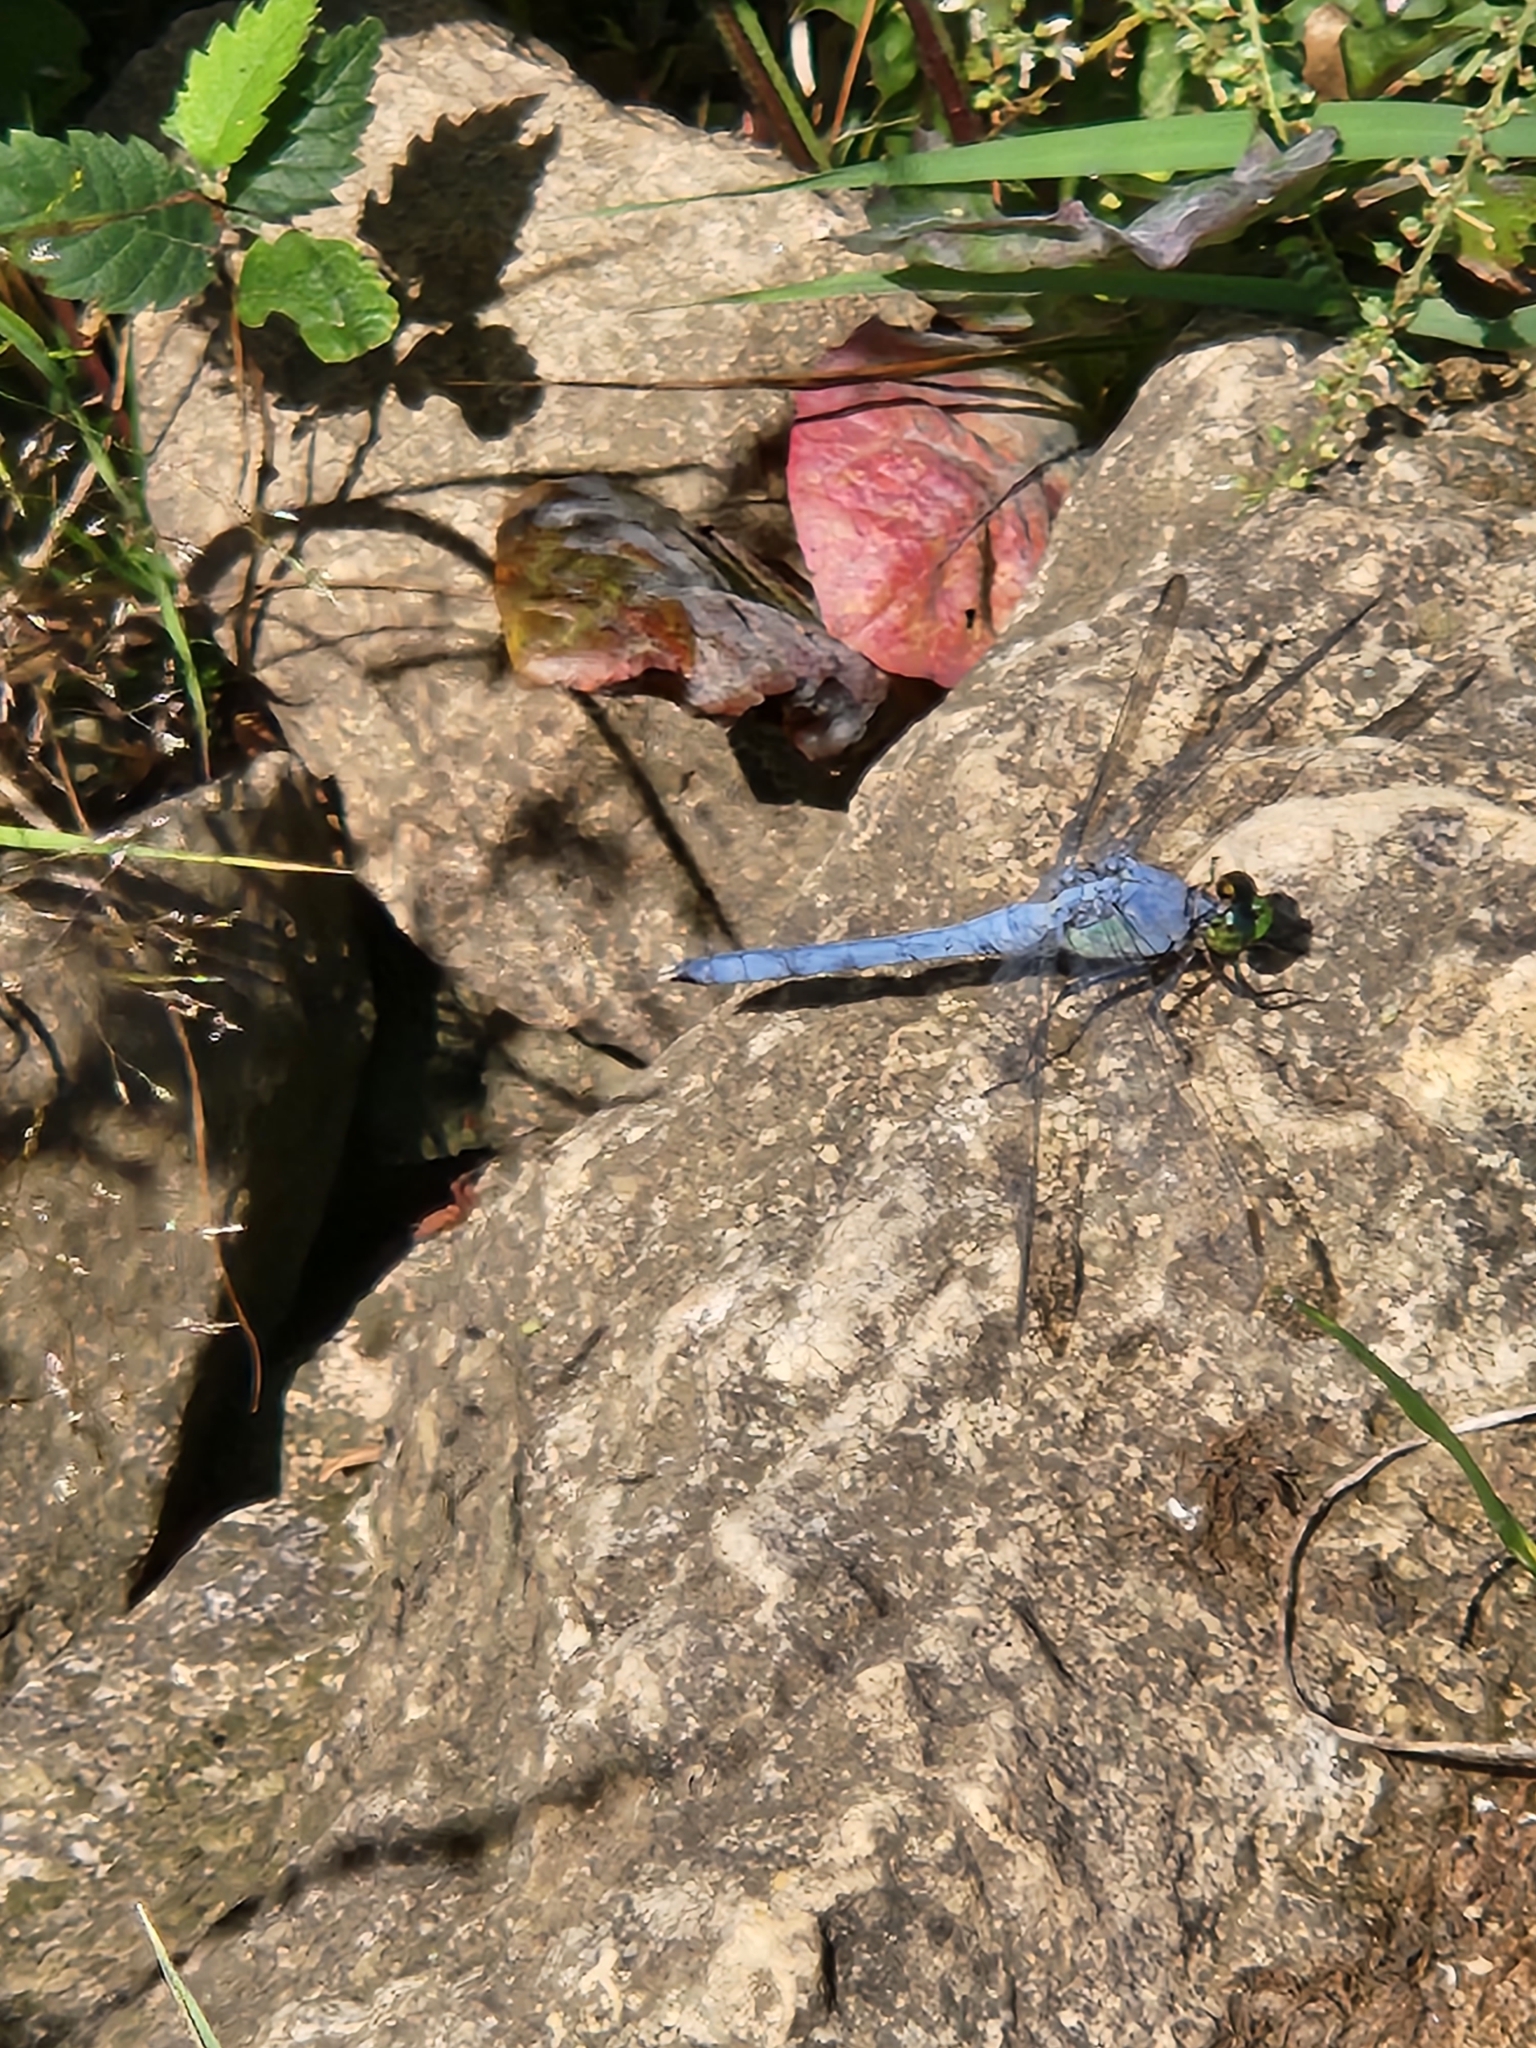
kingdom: Animalia
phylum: Arthropoda
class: Insecta
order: Odonata
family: Libellulidae
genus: Erythemis
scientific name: Erythemis simplicicollis
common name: Eastern pondhawk
